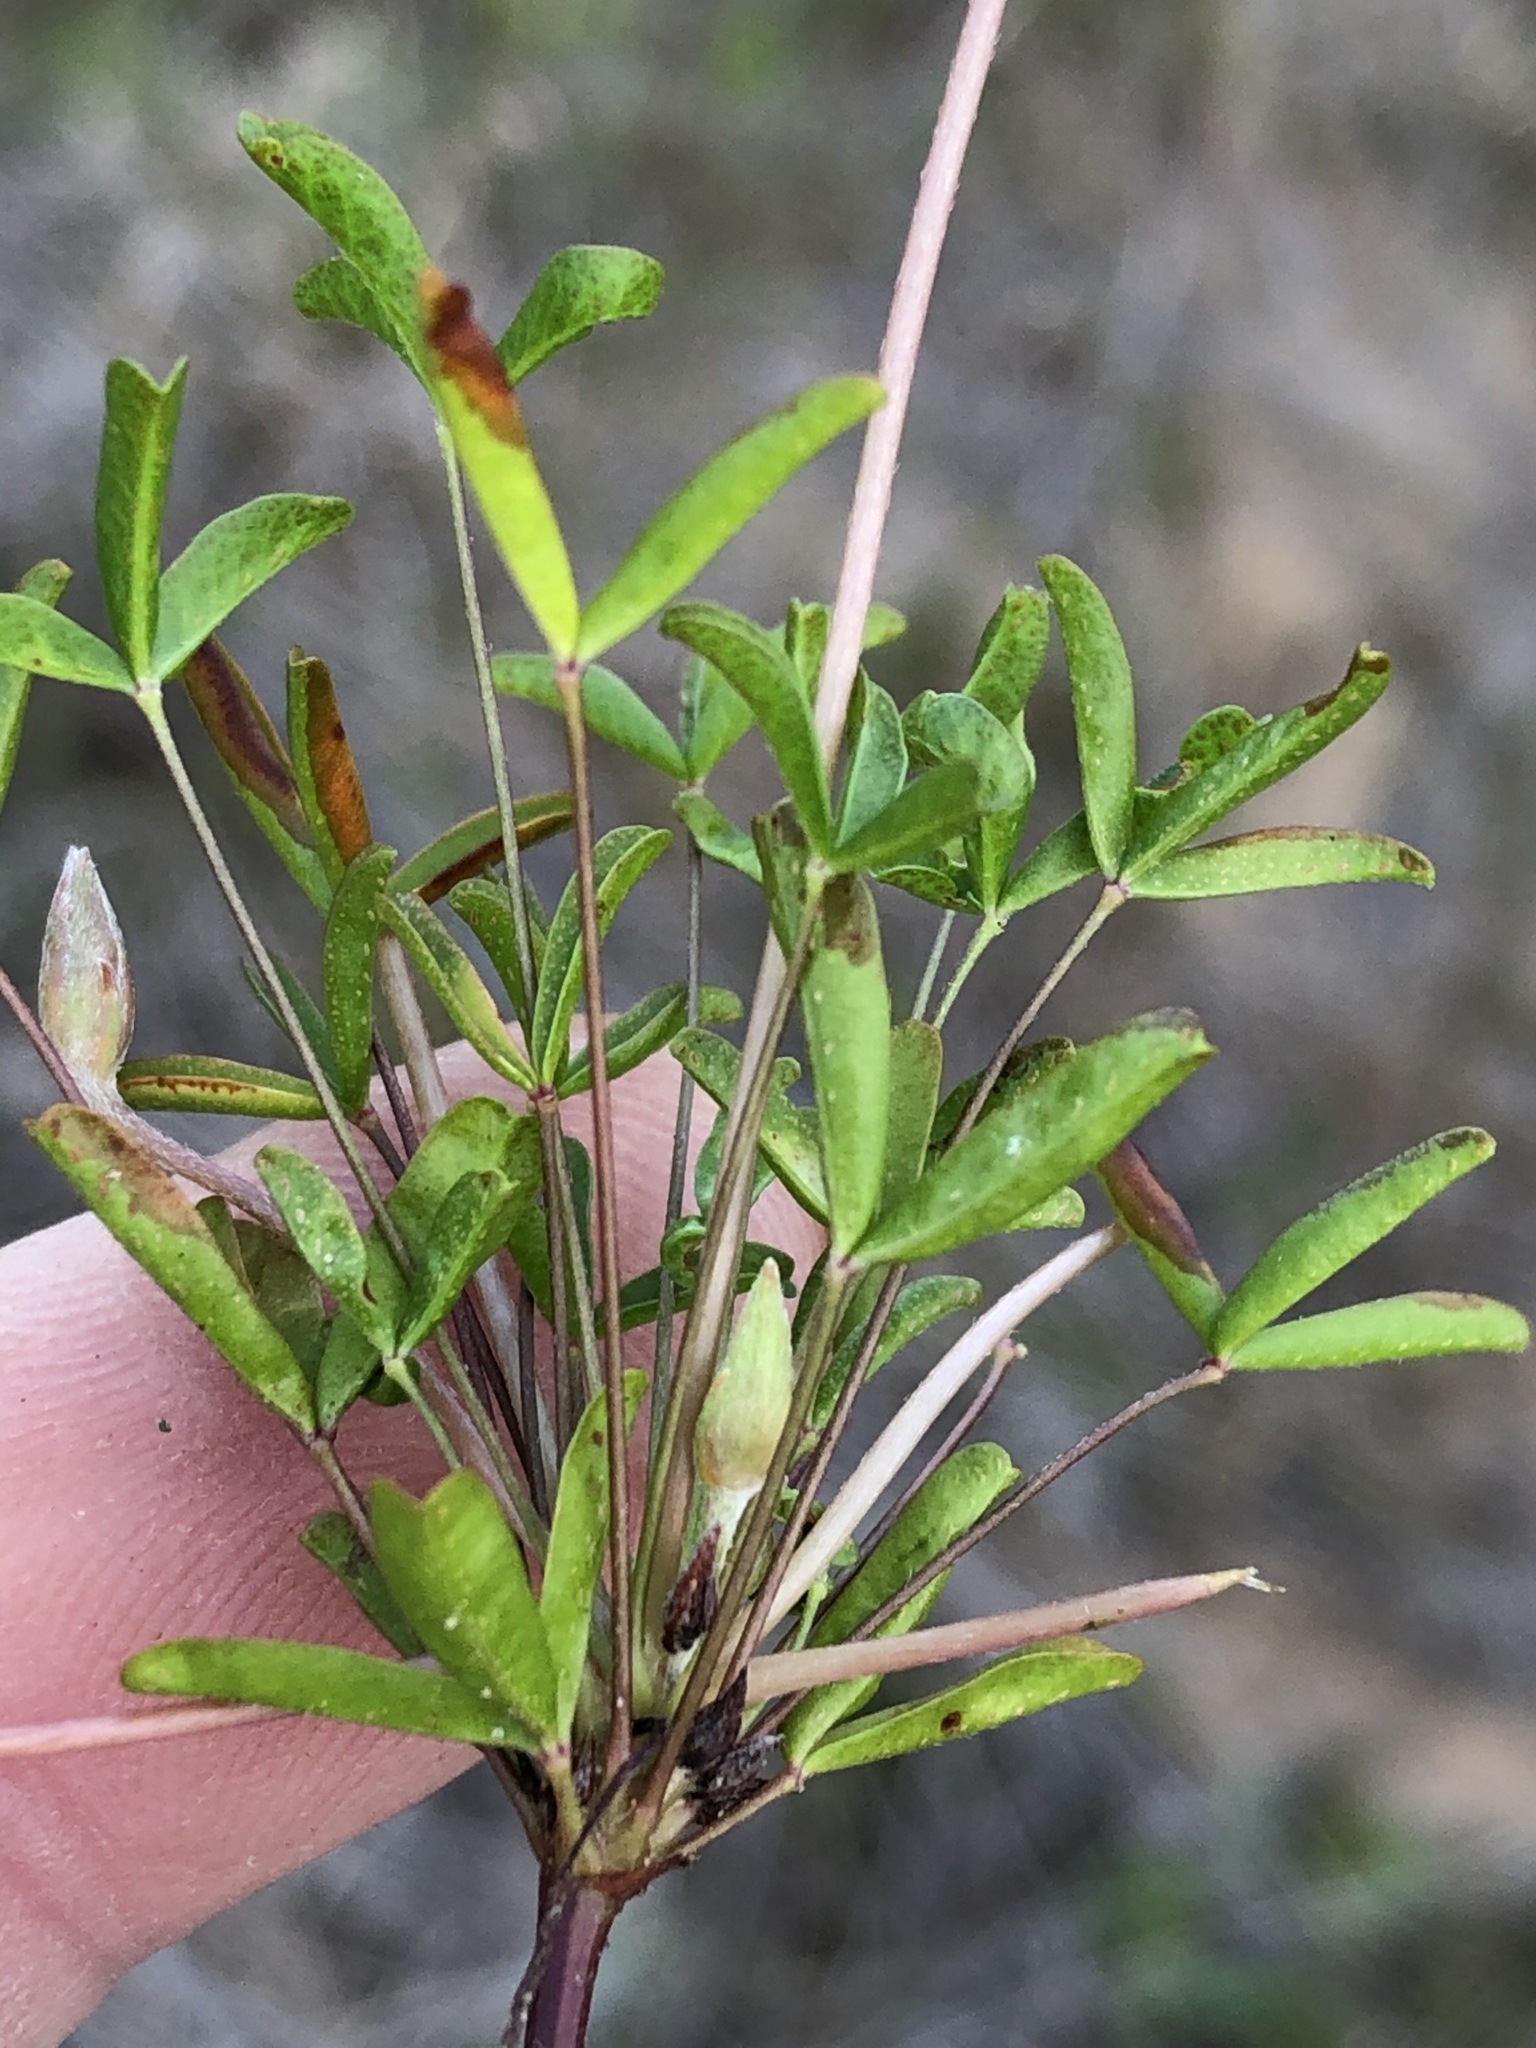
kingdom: Plantae
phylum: Tracheophyta
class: Magnoliopsida
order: Oxalidales
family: Oxalidaceae
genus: Oxalis
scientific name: Oxalis ciliaris
